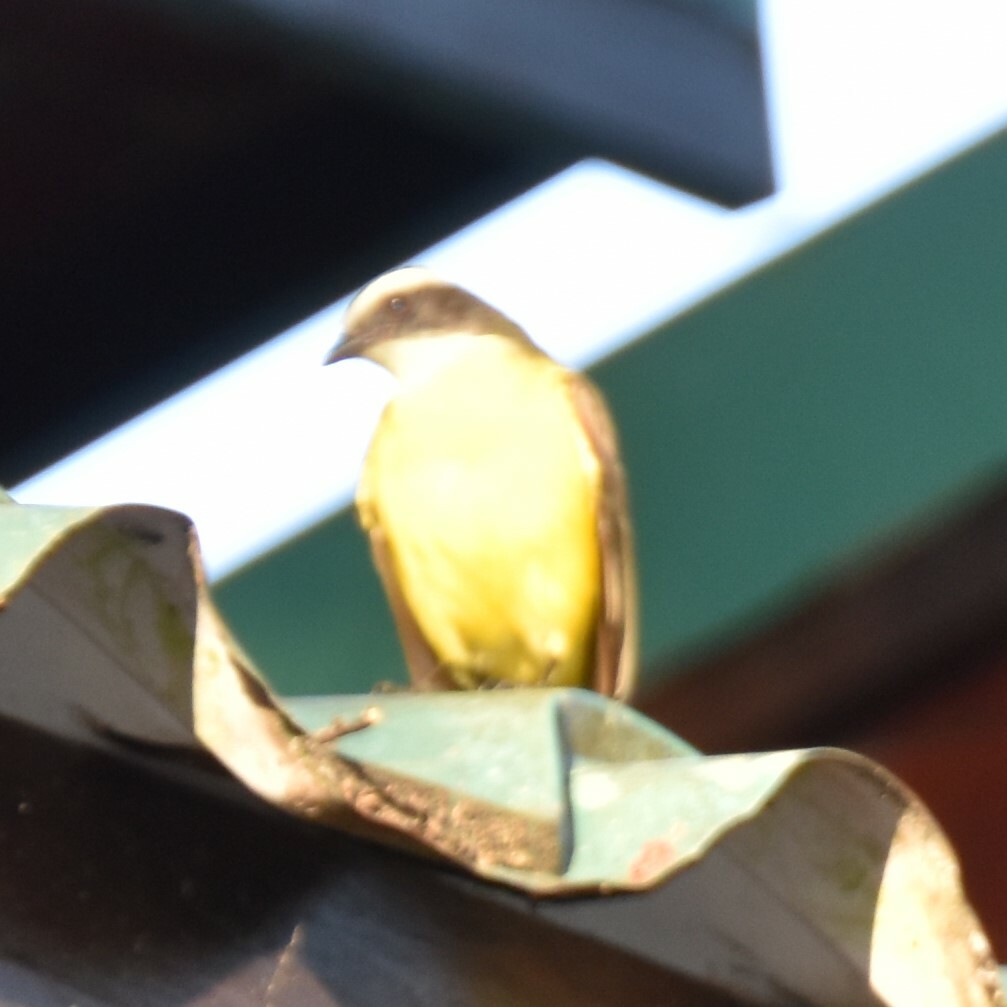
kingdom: Animalia
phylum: Chordata
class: Aves
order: Passeriformes
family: Tyrannidae
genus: Myiozetetes
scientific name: Myiozetetes similis
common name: Social flycatcher
